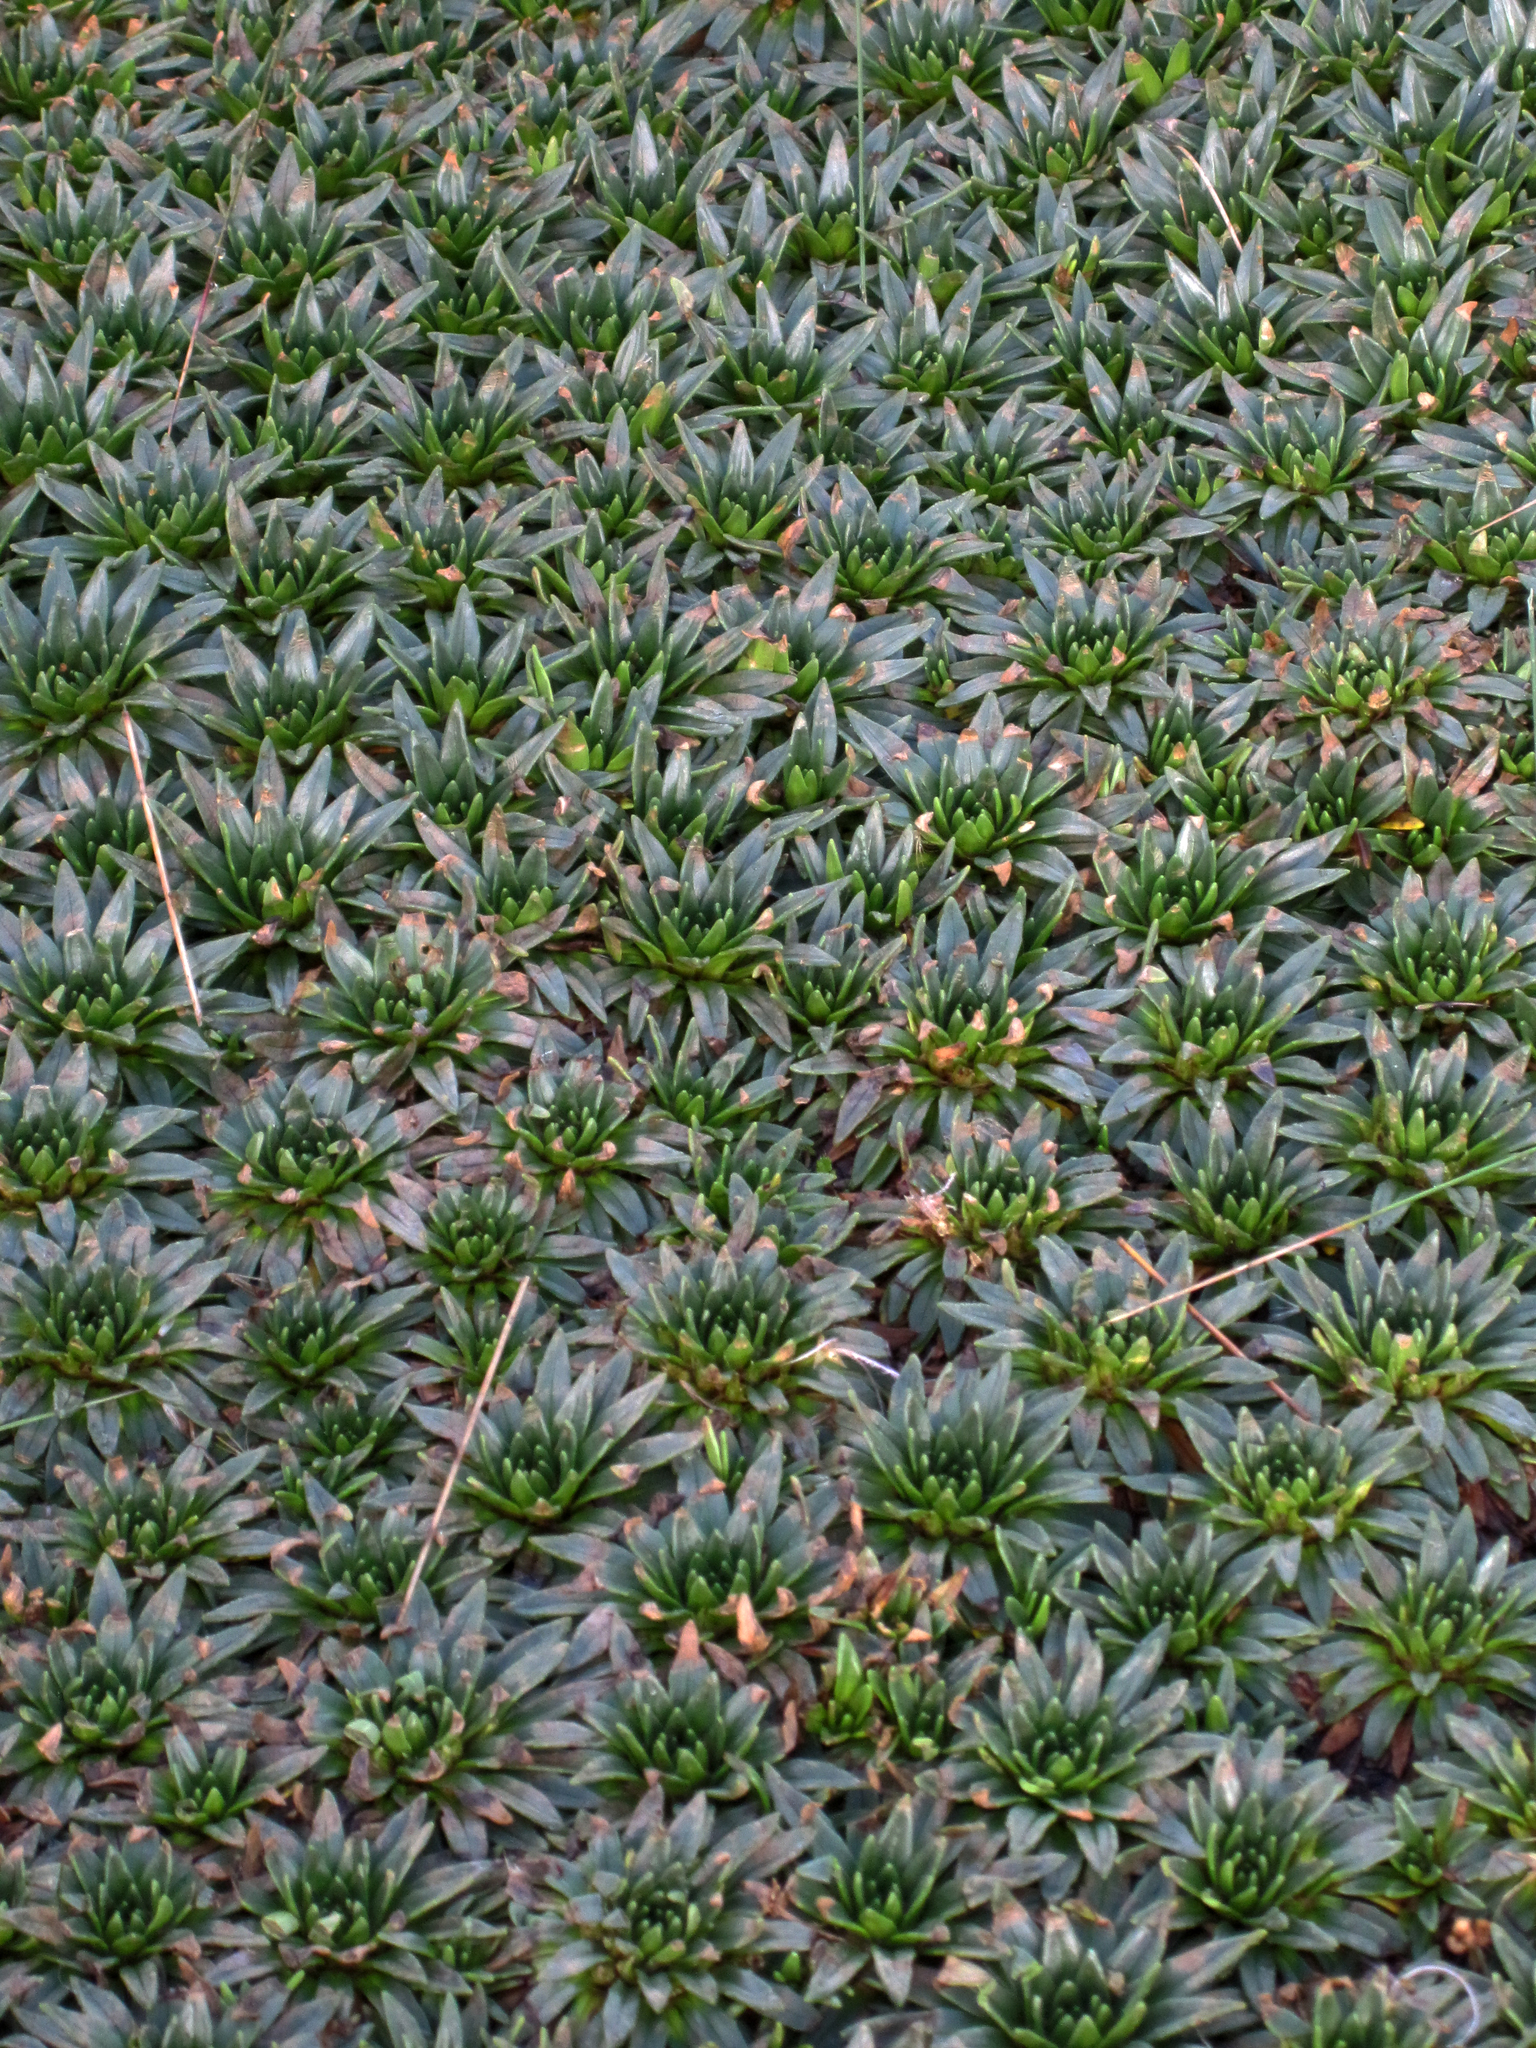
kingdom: Plantae
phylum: Tracheophyta
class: Magnoliopsida
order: Lamiales
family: Plantaginaceae
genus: Plantago
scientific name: Plantago rigida
